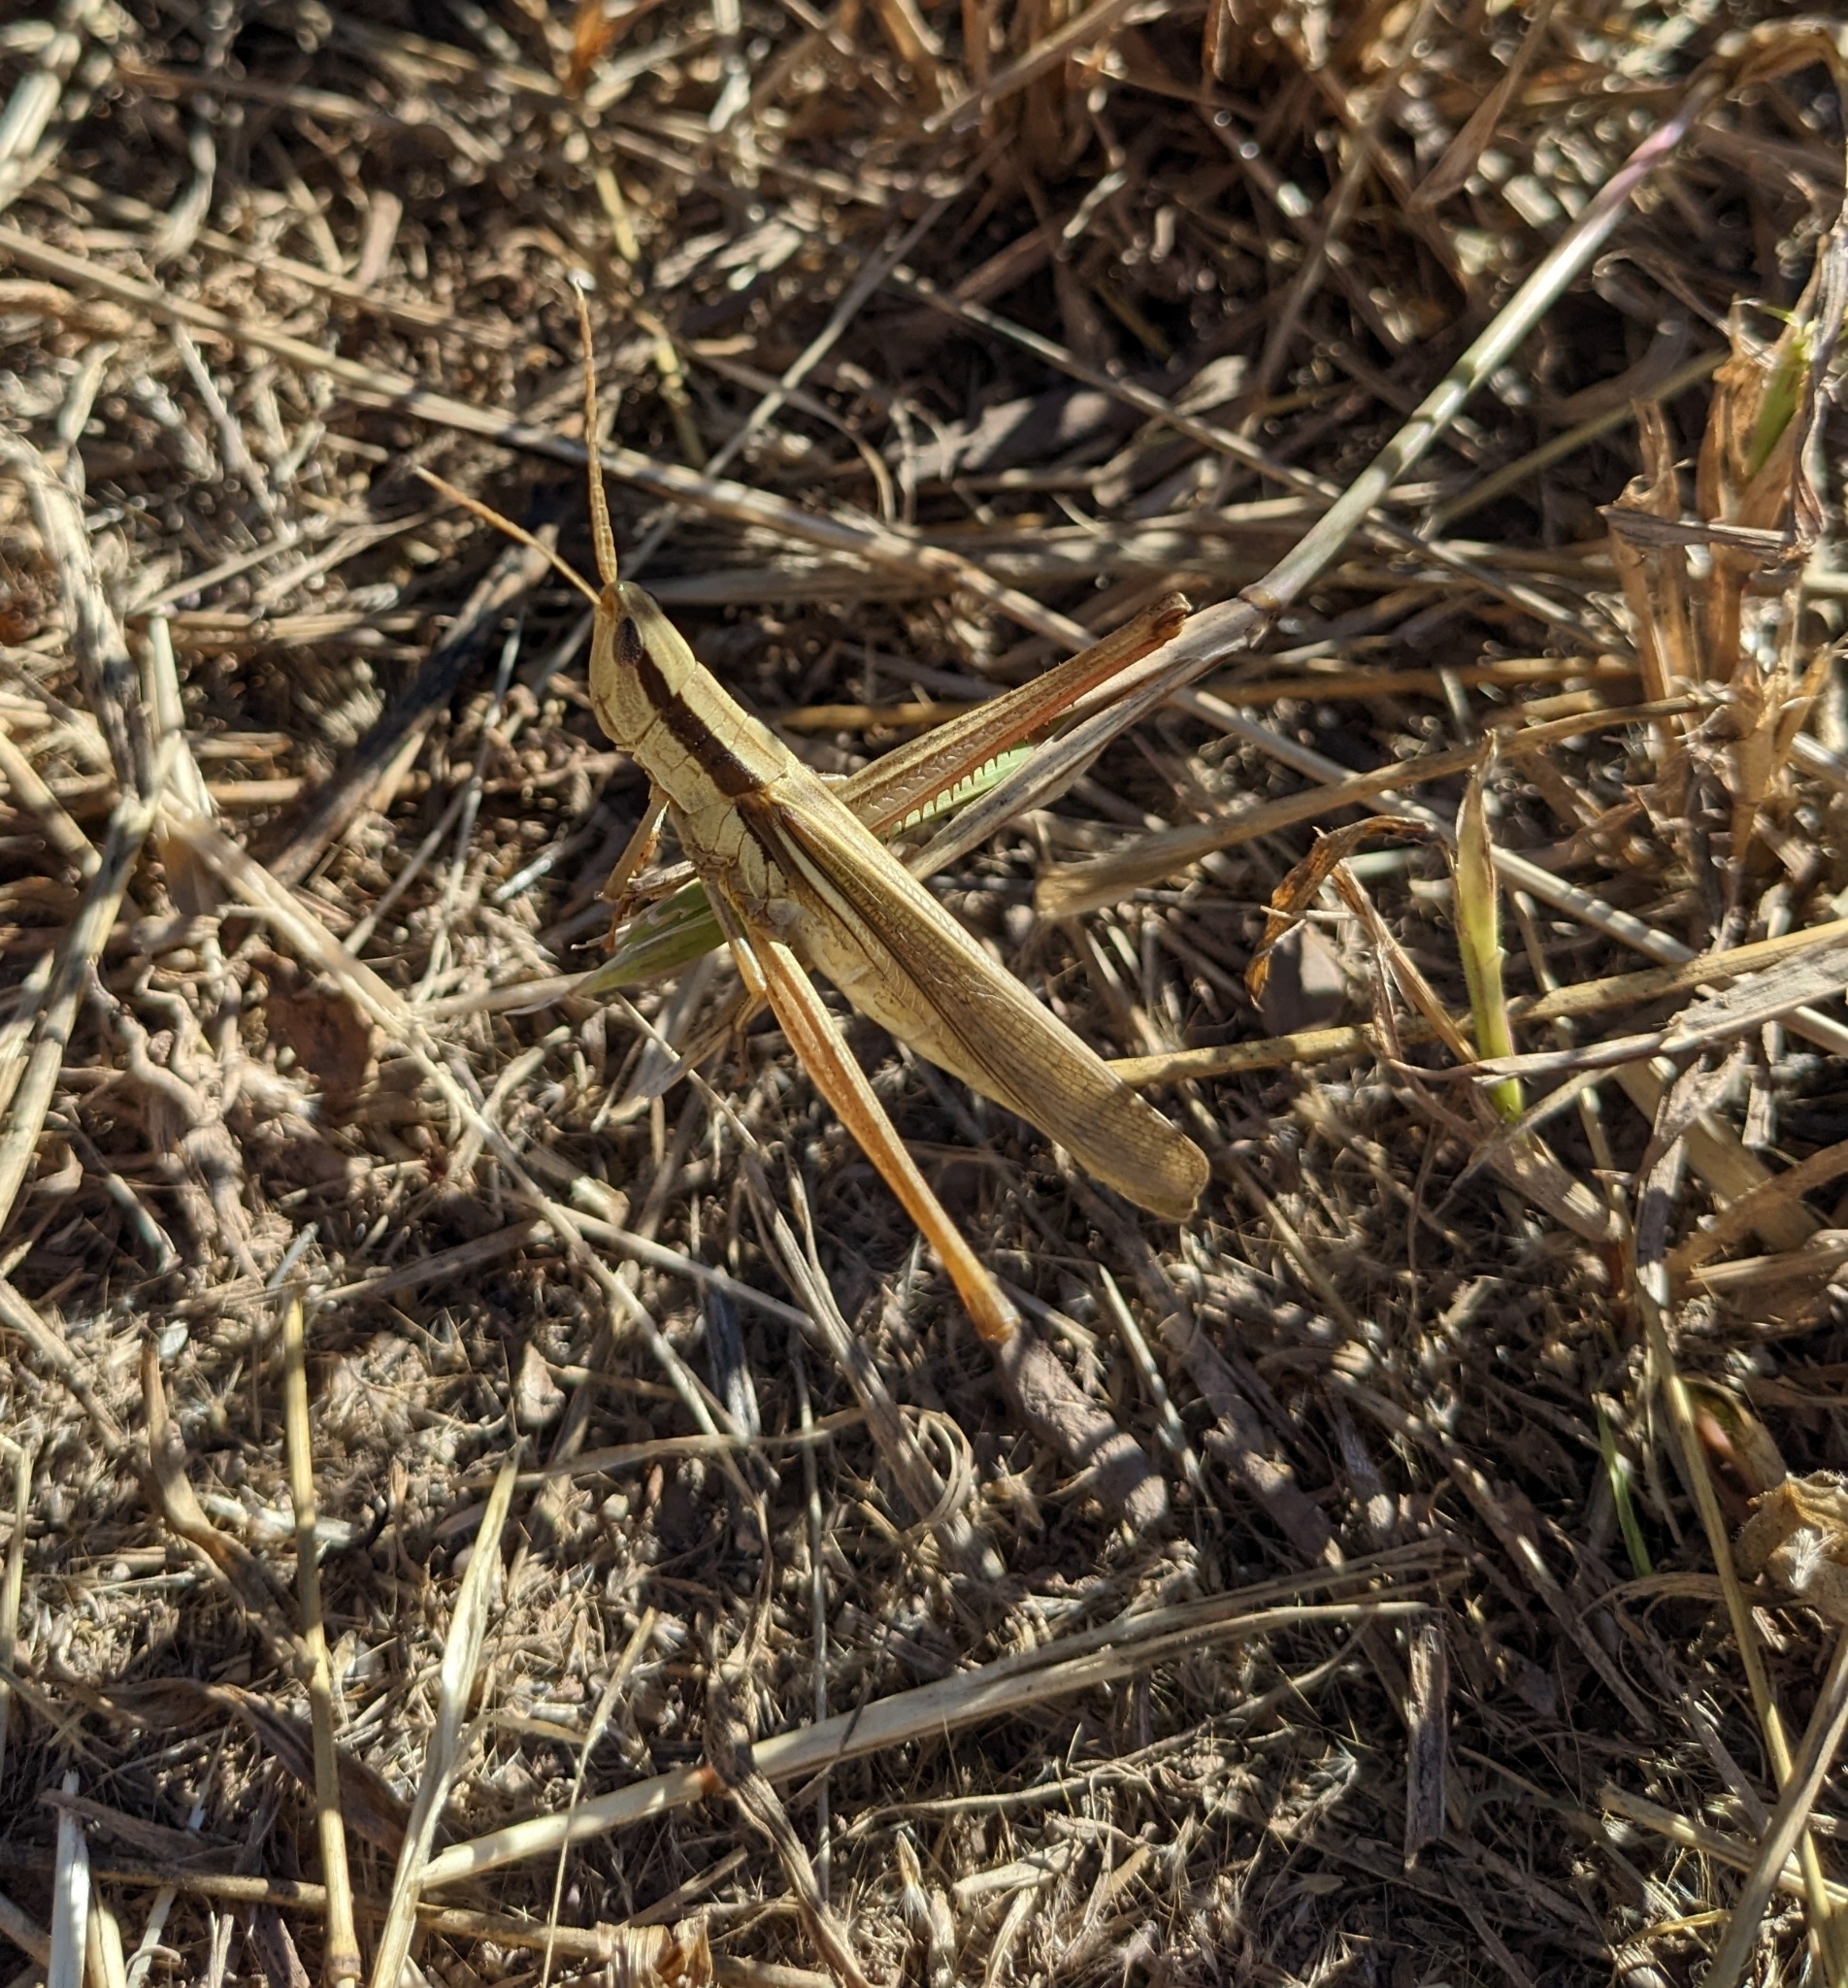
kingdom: Animalia
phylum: Arthropoda
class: Insecta
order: Orthoptera
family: Acrididae
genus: Mermiria
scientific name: Mermiria bivittata
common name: Two-striped mermiria grasshopper
